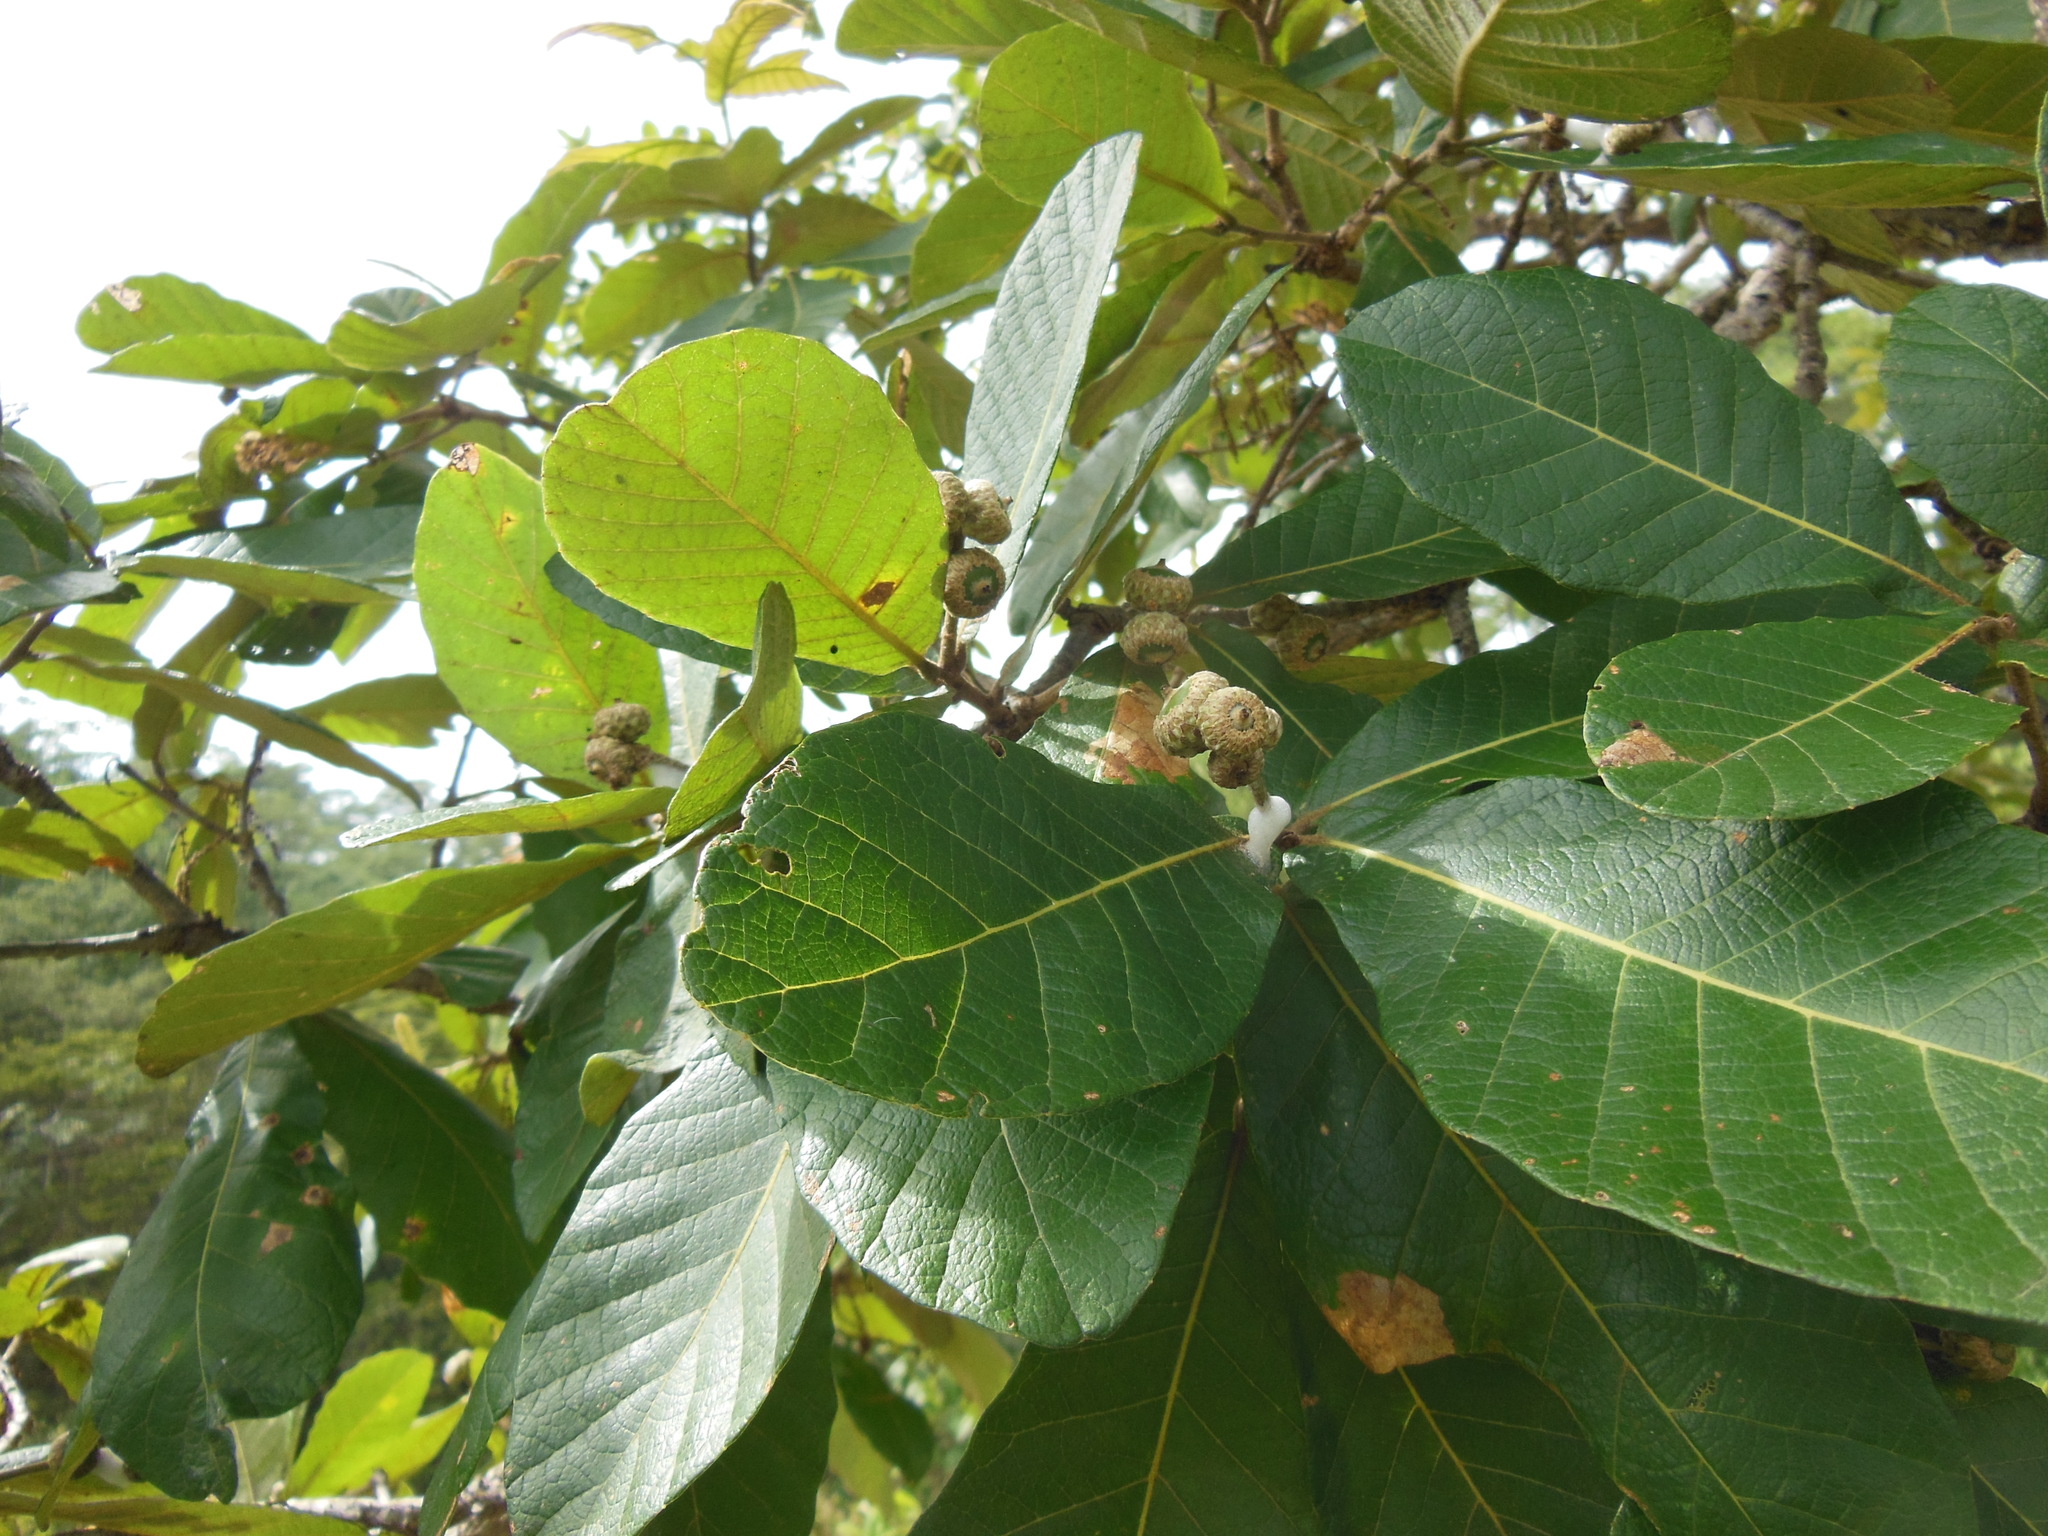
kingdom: Plantae
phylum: Tracheophyta
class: Magnoliopsida
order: Fagales
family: Fagaceae
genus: Quercus
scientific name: Quercus purulhana
